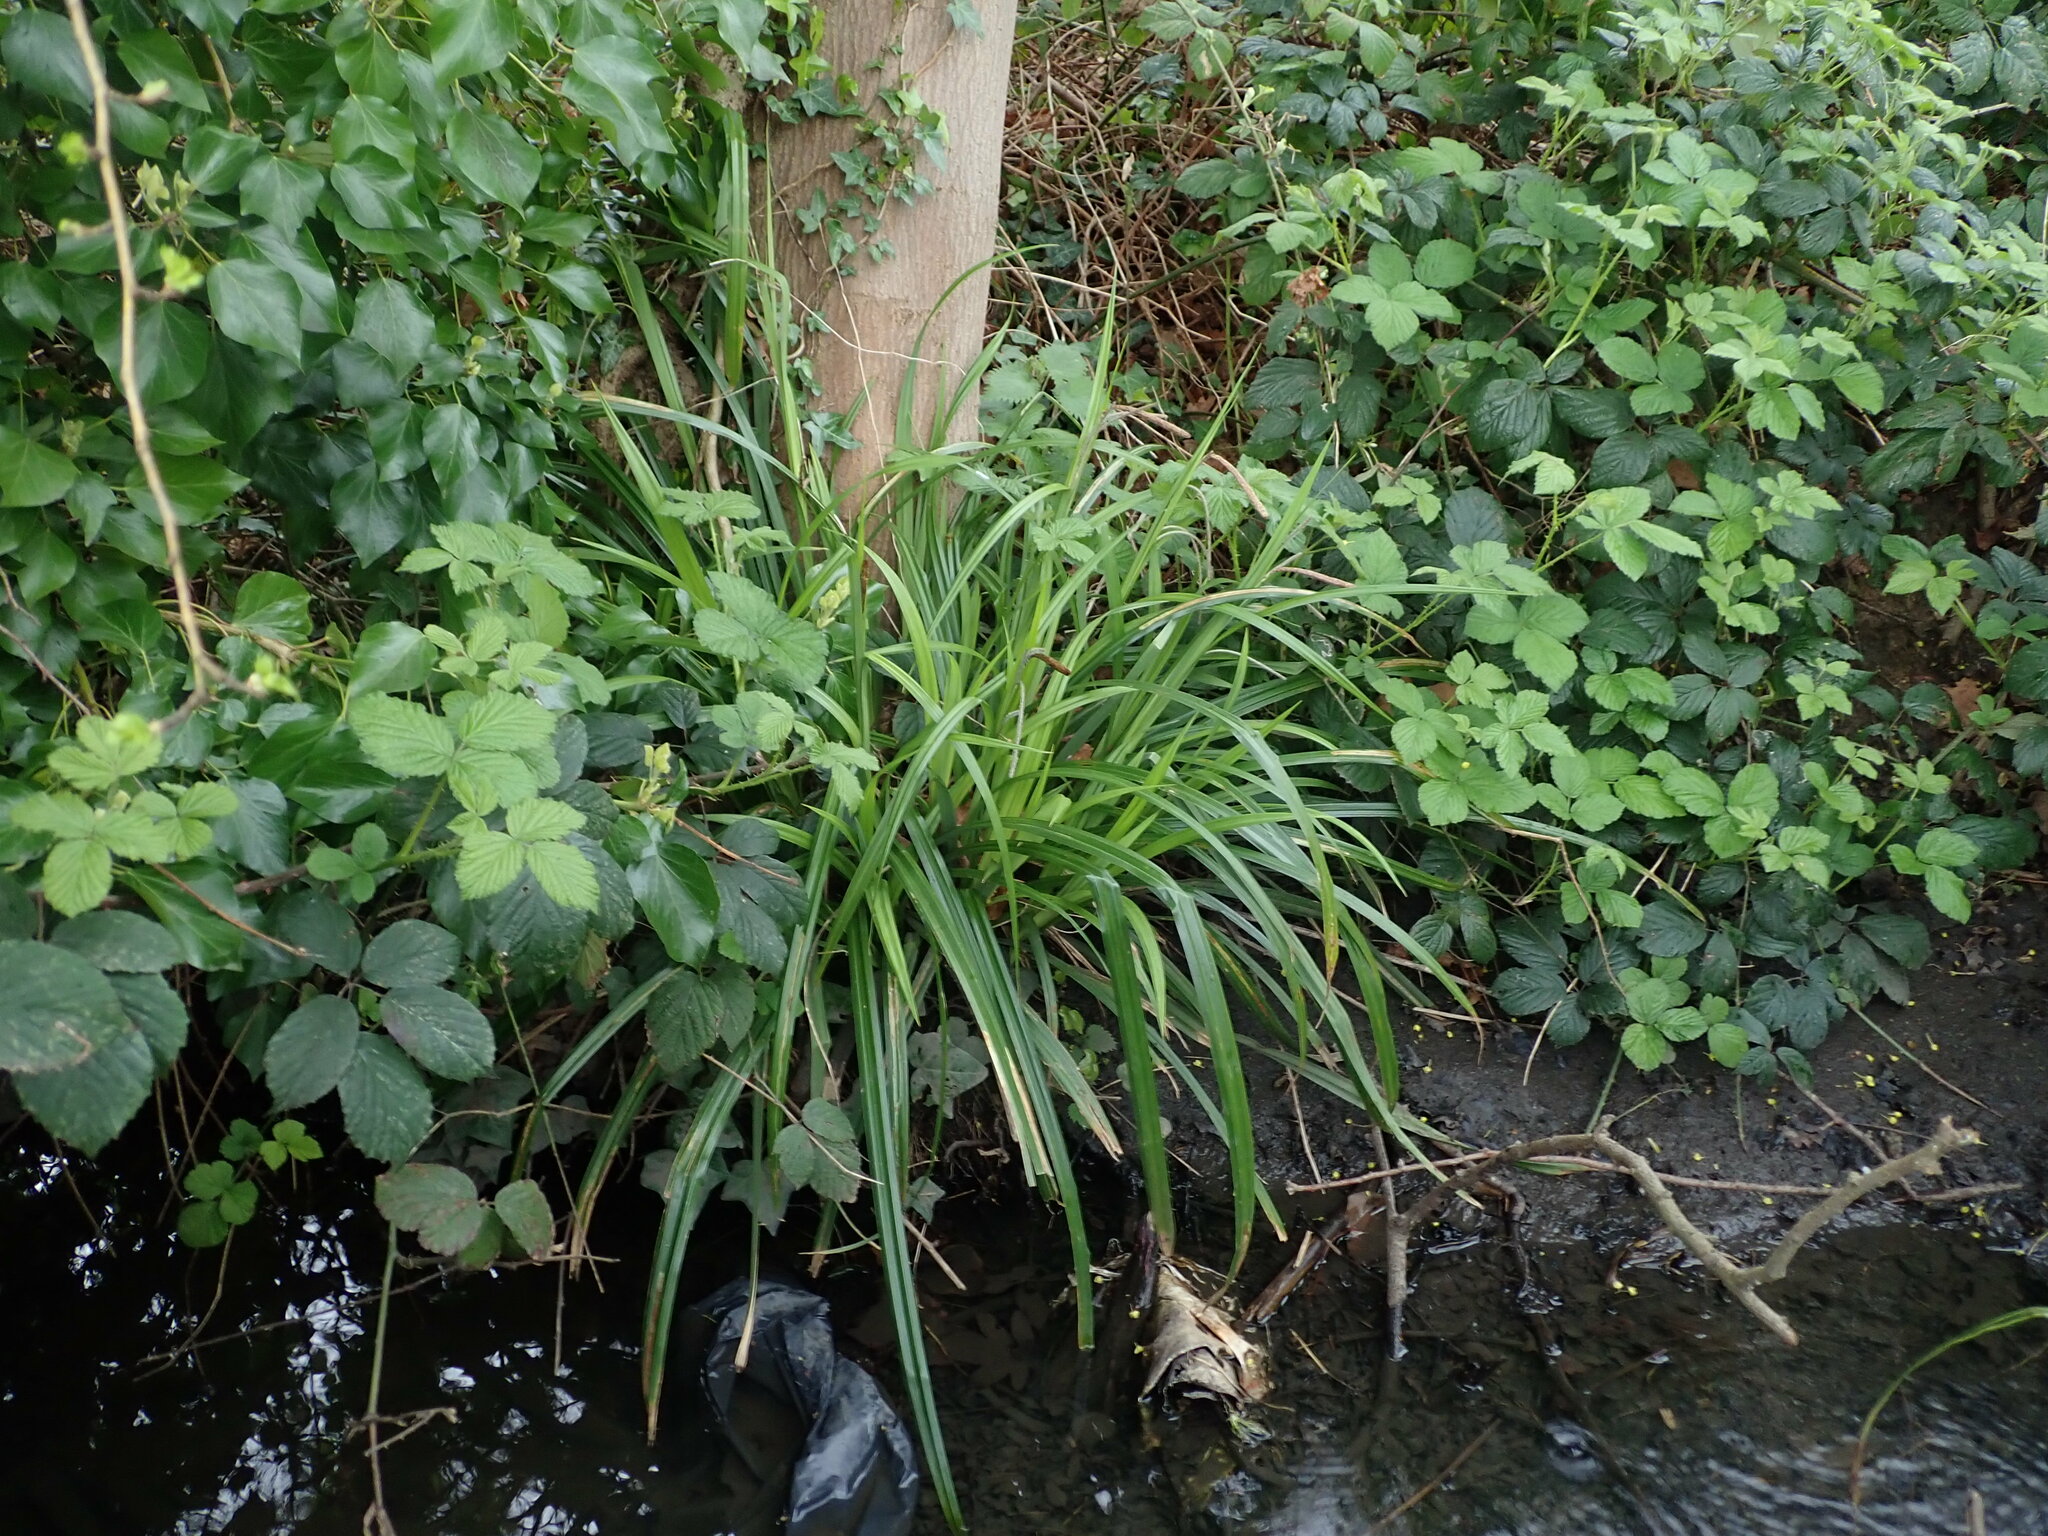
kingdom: Plantae
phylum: Tracheophyta
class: Liliopsida
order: Poales
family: Cyperaceae
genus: Carex
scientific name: Carex pendula
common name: Pendulous sedge
